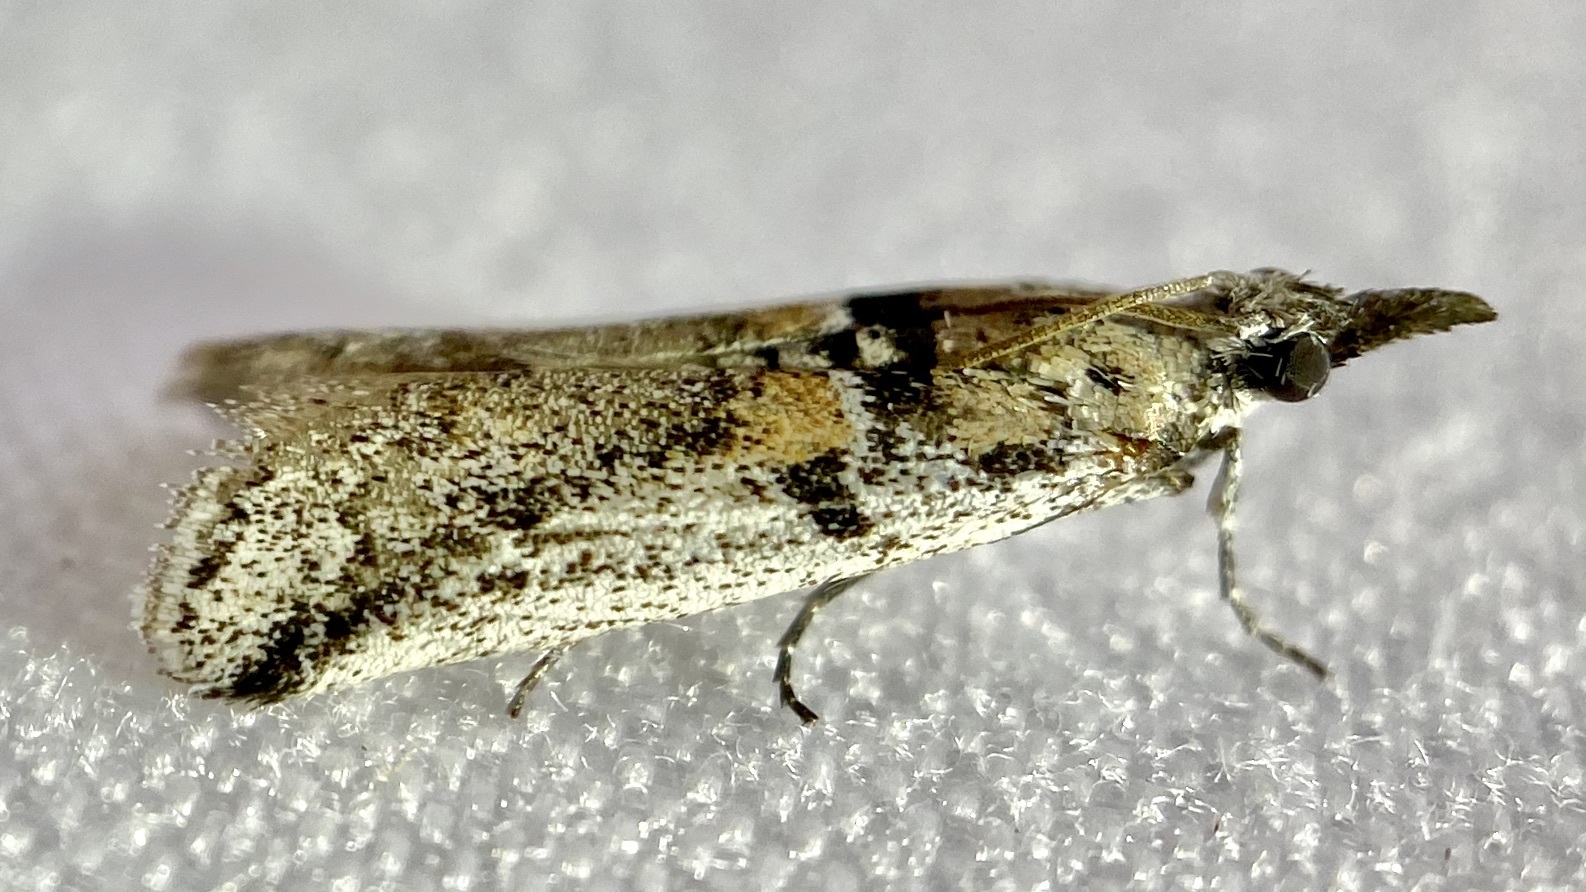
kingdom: Animalia
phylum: Arthropoda
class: Insecta
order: Lepidoptera
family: Pyralidae
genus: Rostrolaetilia
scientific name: Rostrolaetilia nigromaculella
